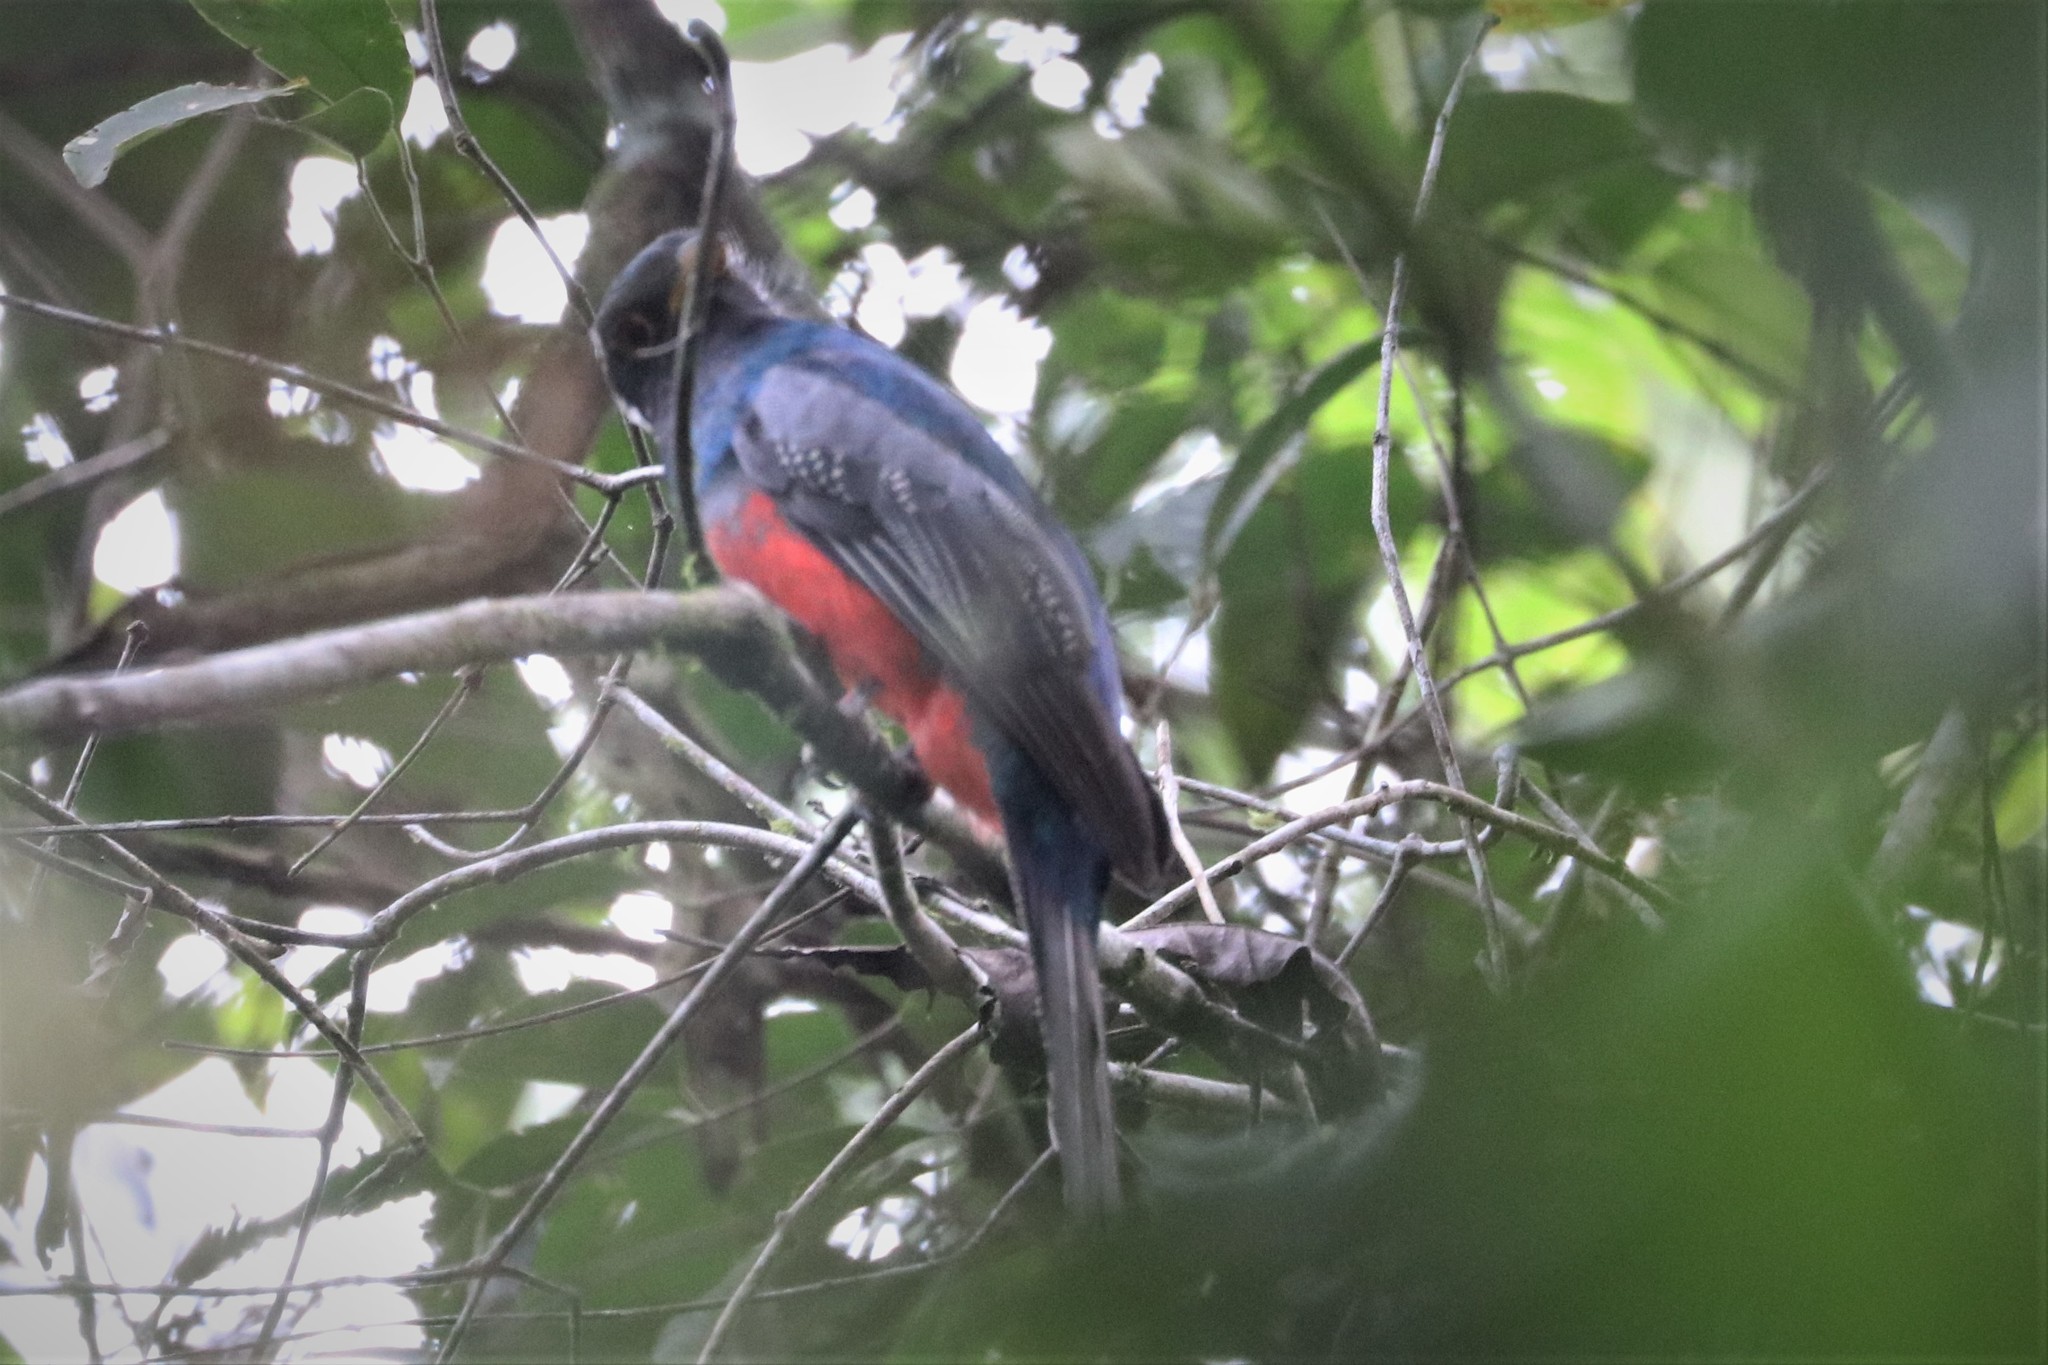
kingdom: Animalia
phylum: Chordata
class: Aves
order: Trogoniformes
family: Trogonidae
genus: Trogon
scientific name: Trogon curucui
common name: Blue-crowned trogon
